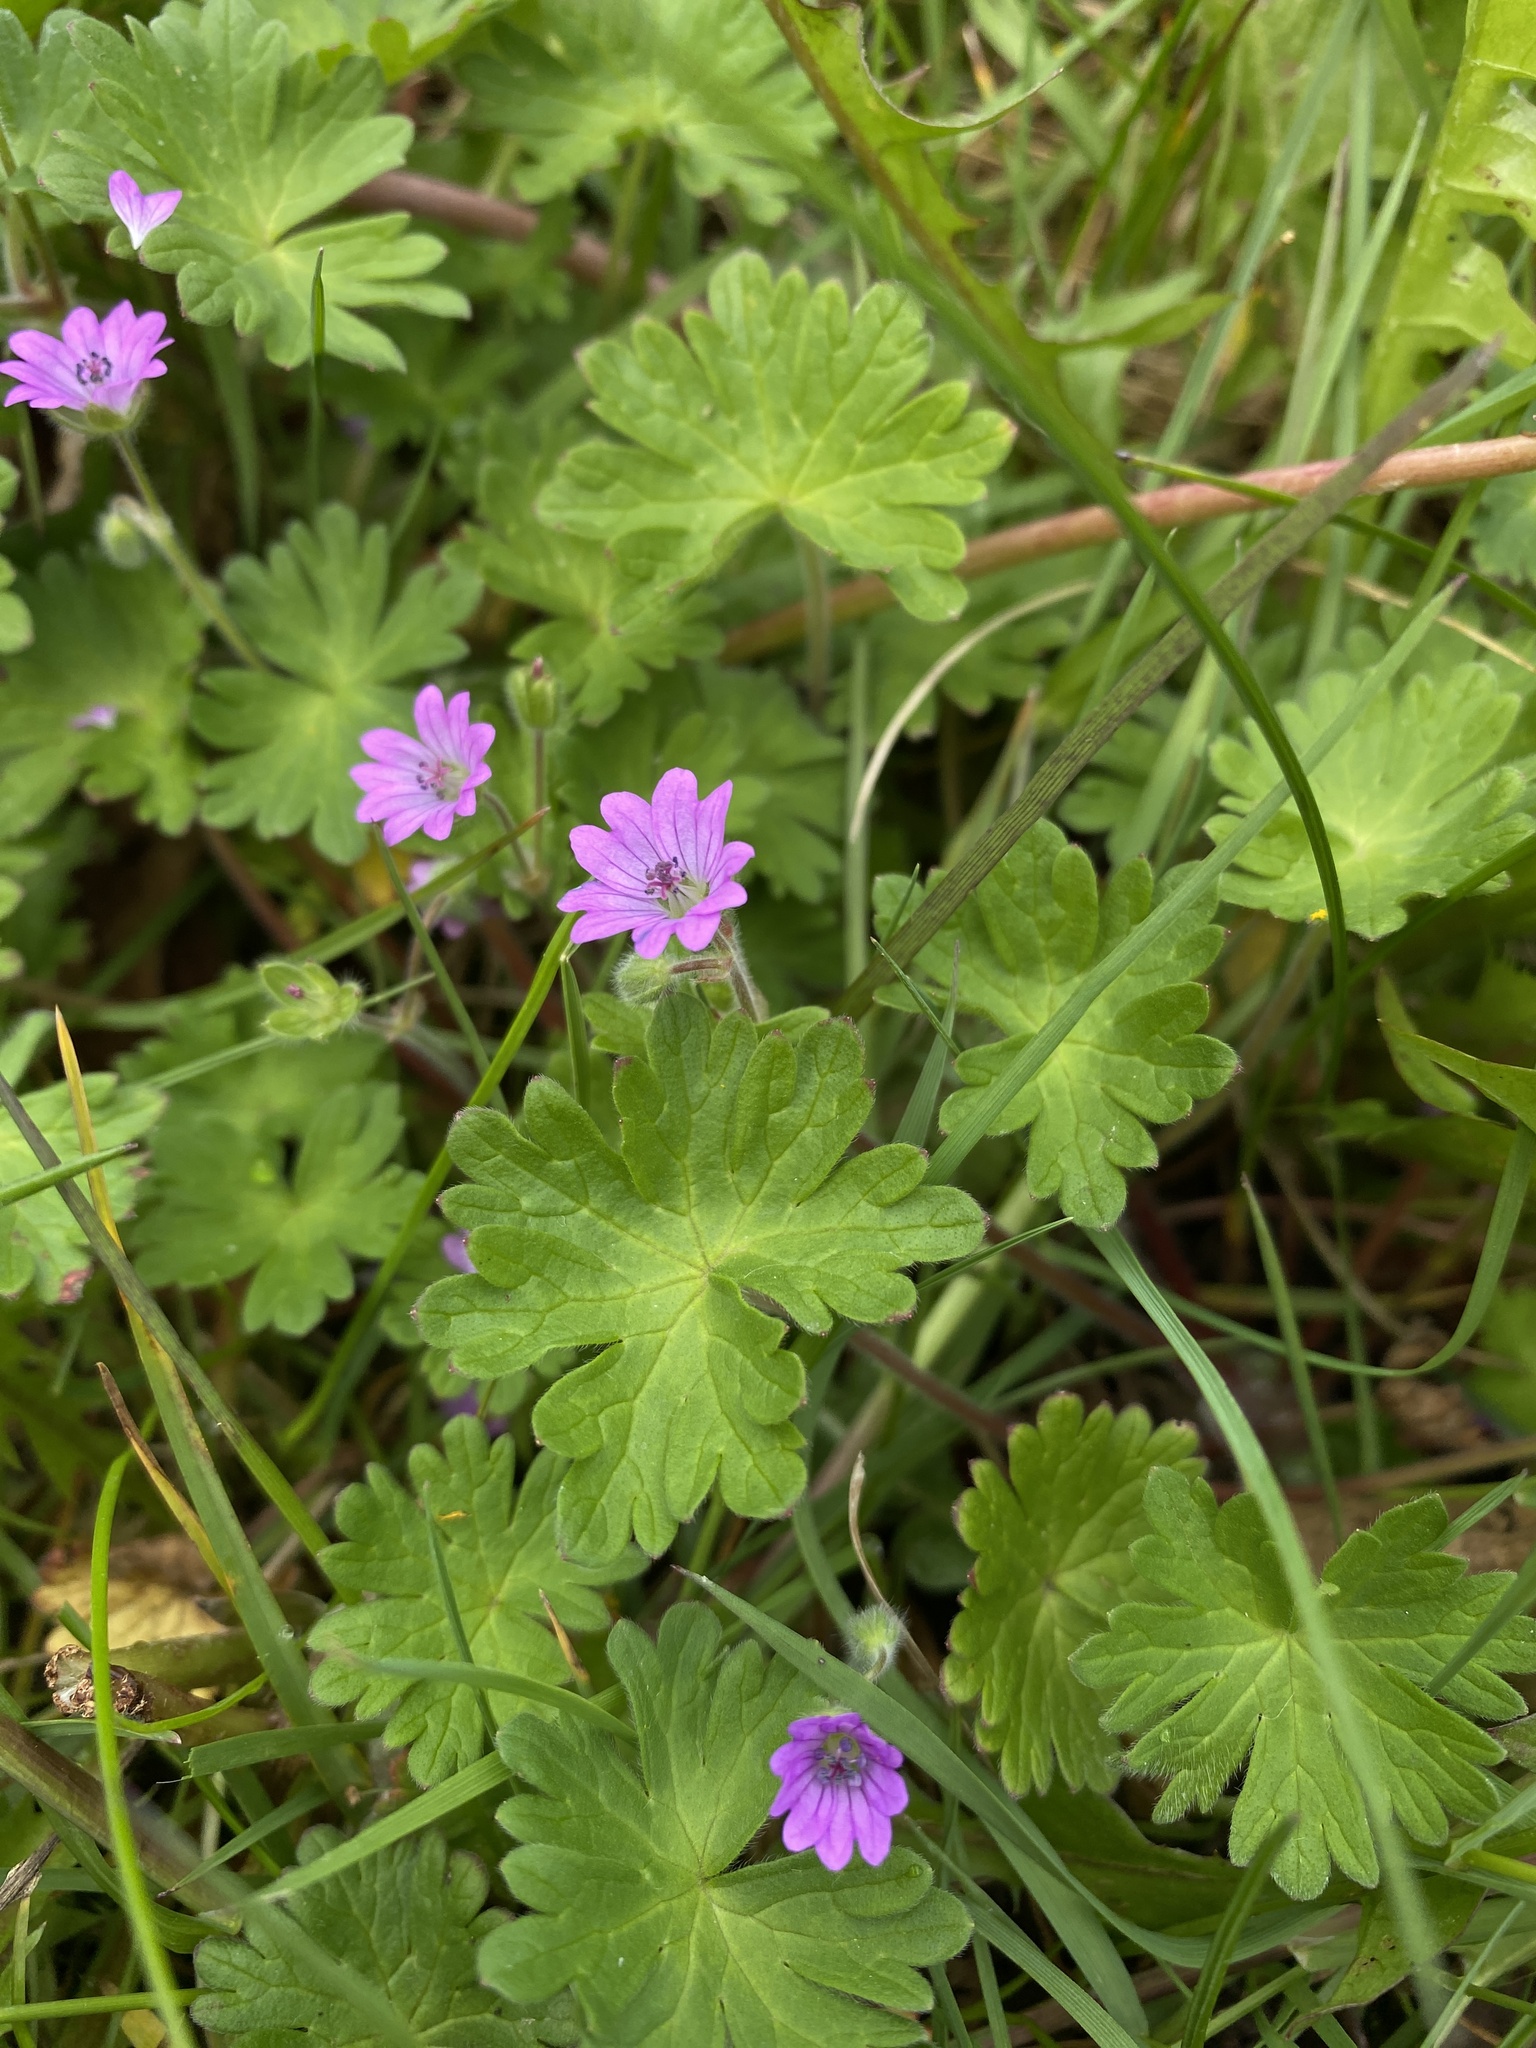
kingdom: Plantae
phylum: Tracheophyta
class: Magnoliopsida
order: Geraniales
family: Geraniaceae
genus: Geranium
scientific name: Geranium molle
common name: Dove's-foot crane's-bill
